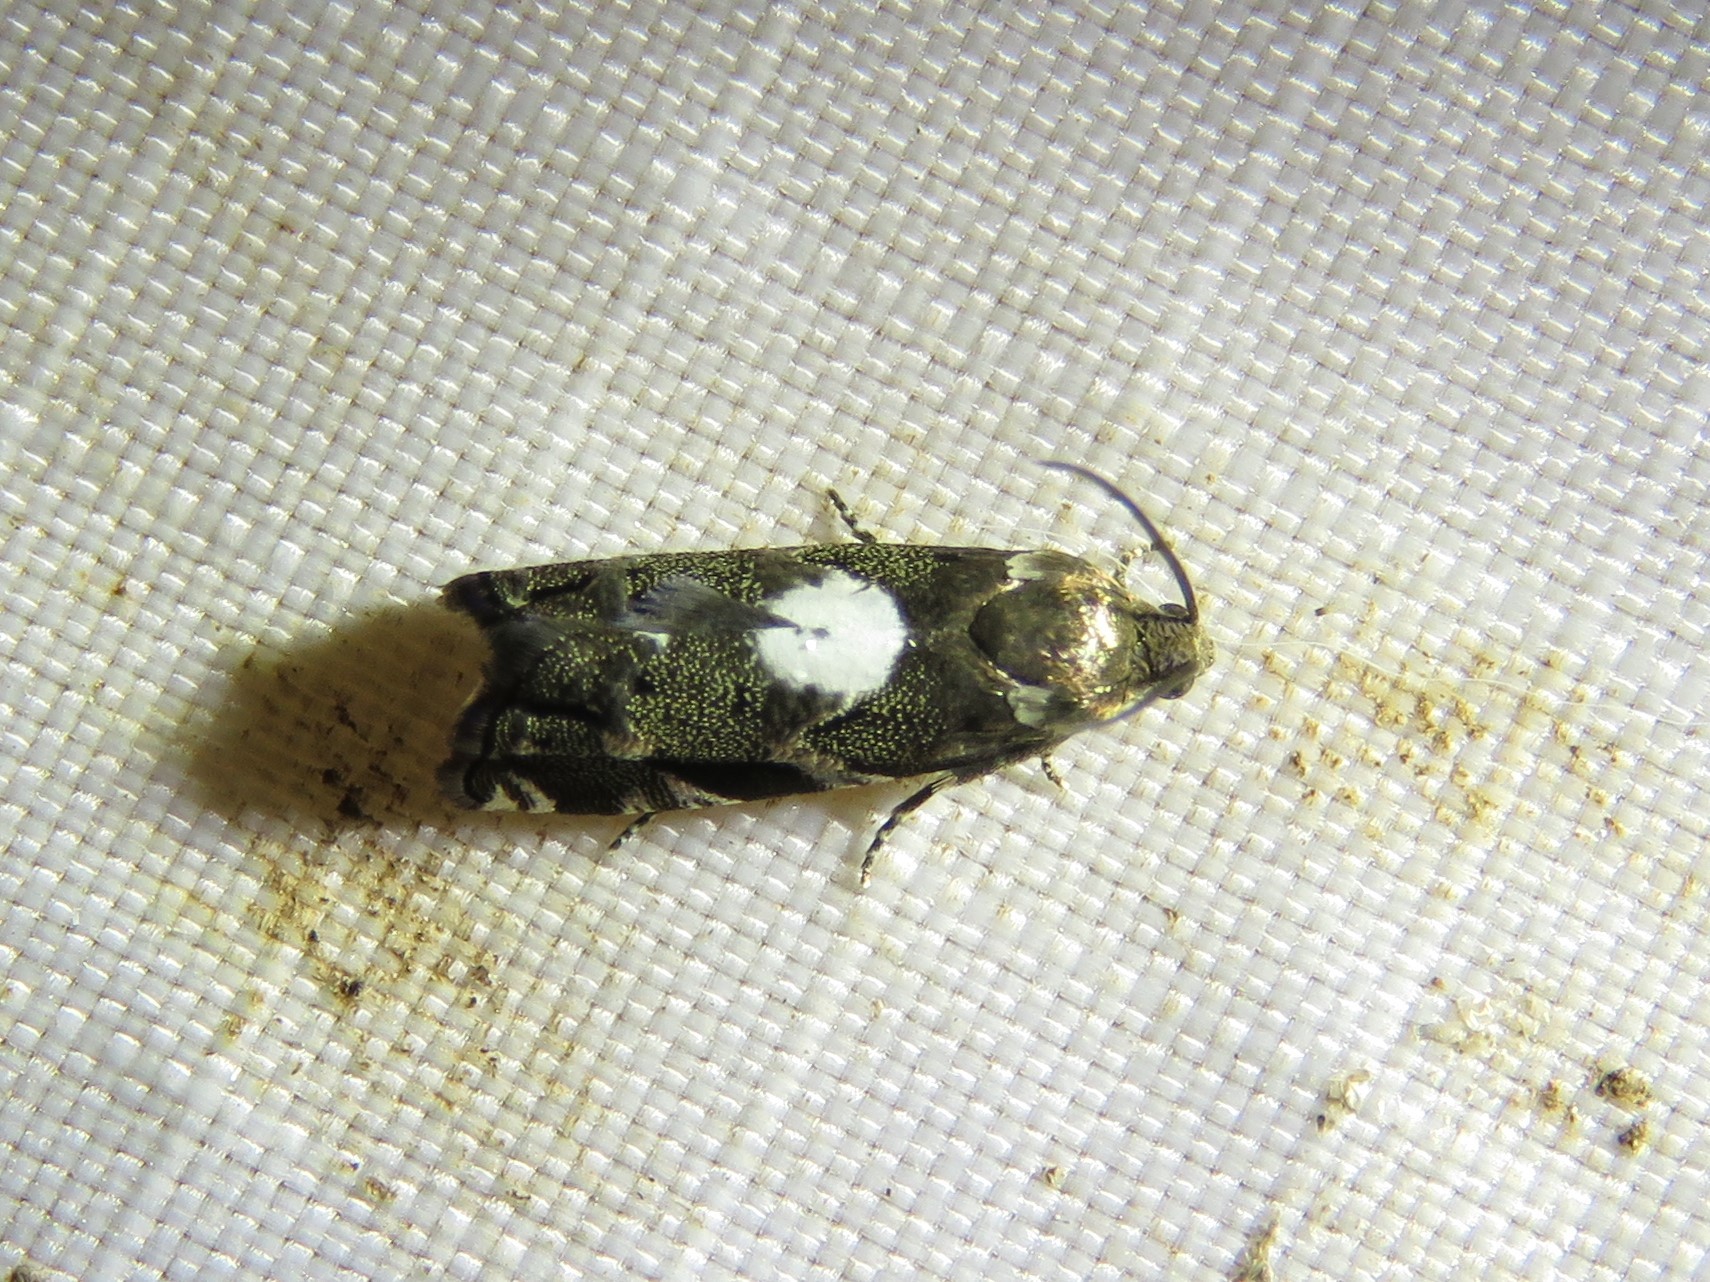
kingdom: Animalia
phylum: Arthropoda
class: Insecta
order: Lepidoptera
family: Tortricidae
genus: Cydia
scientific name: Cydia albimaculana
